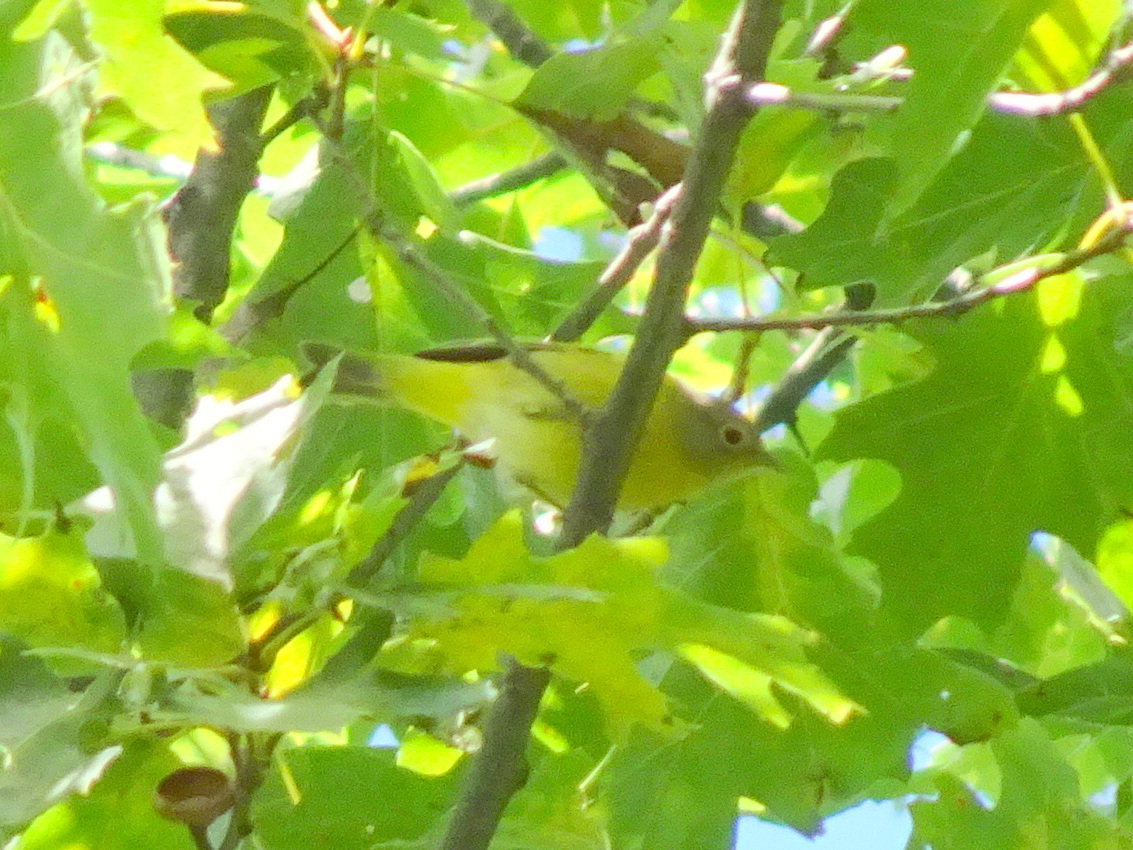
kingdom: Animalia
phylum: Chordata
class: Aves
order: Passeriformes
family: Parulidae
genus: Leiothlypis
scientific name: Leiothlypis ruficapilla
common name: Nashville warbler
